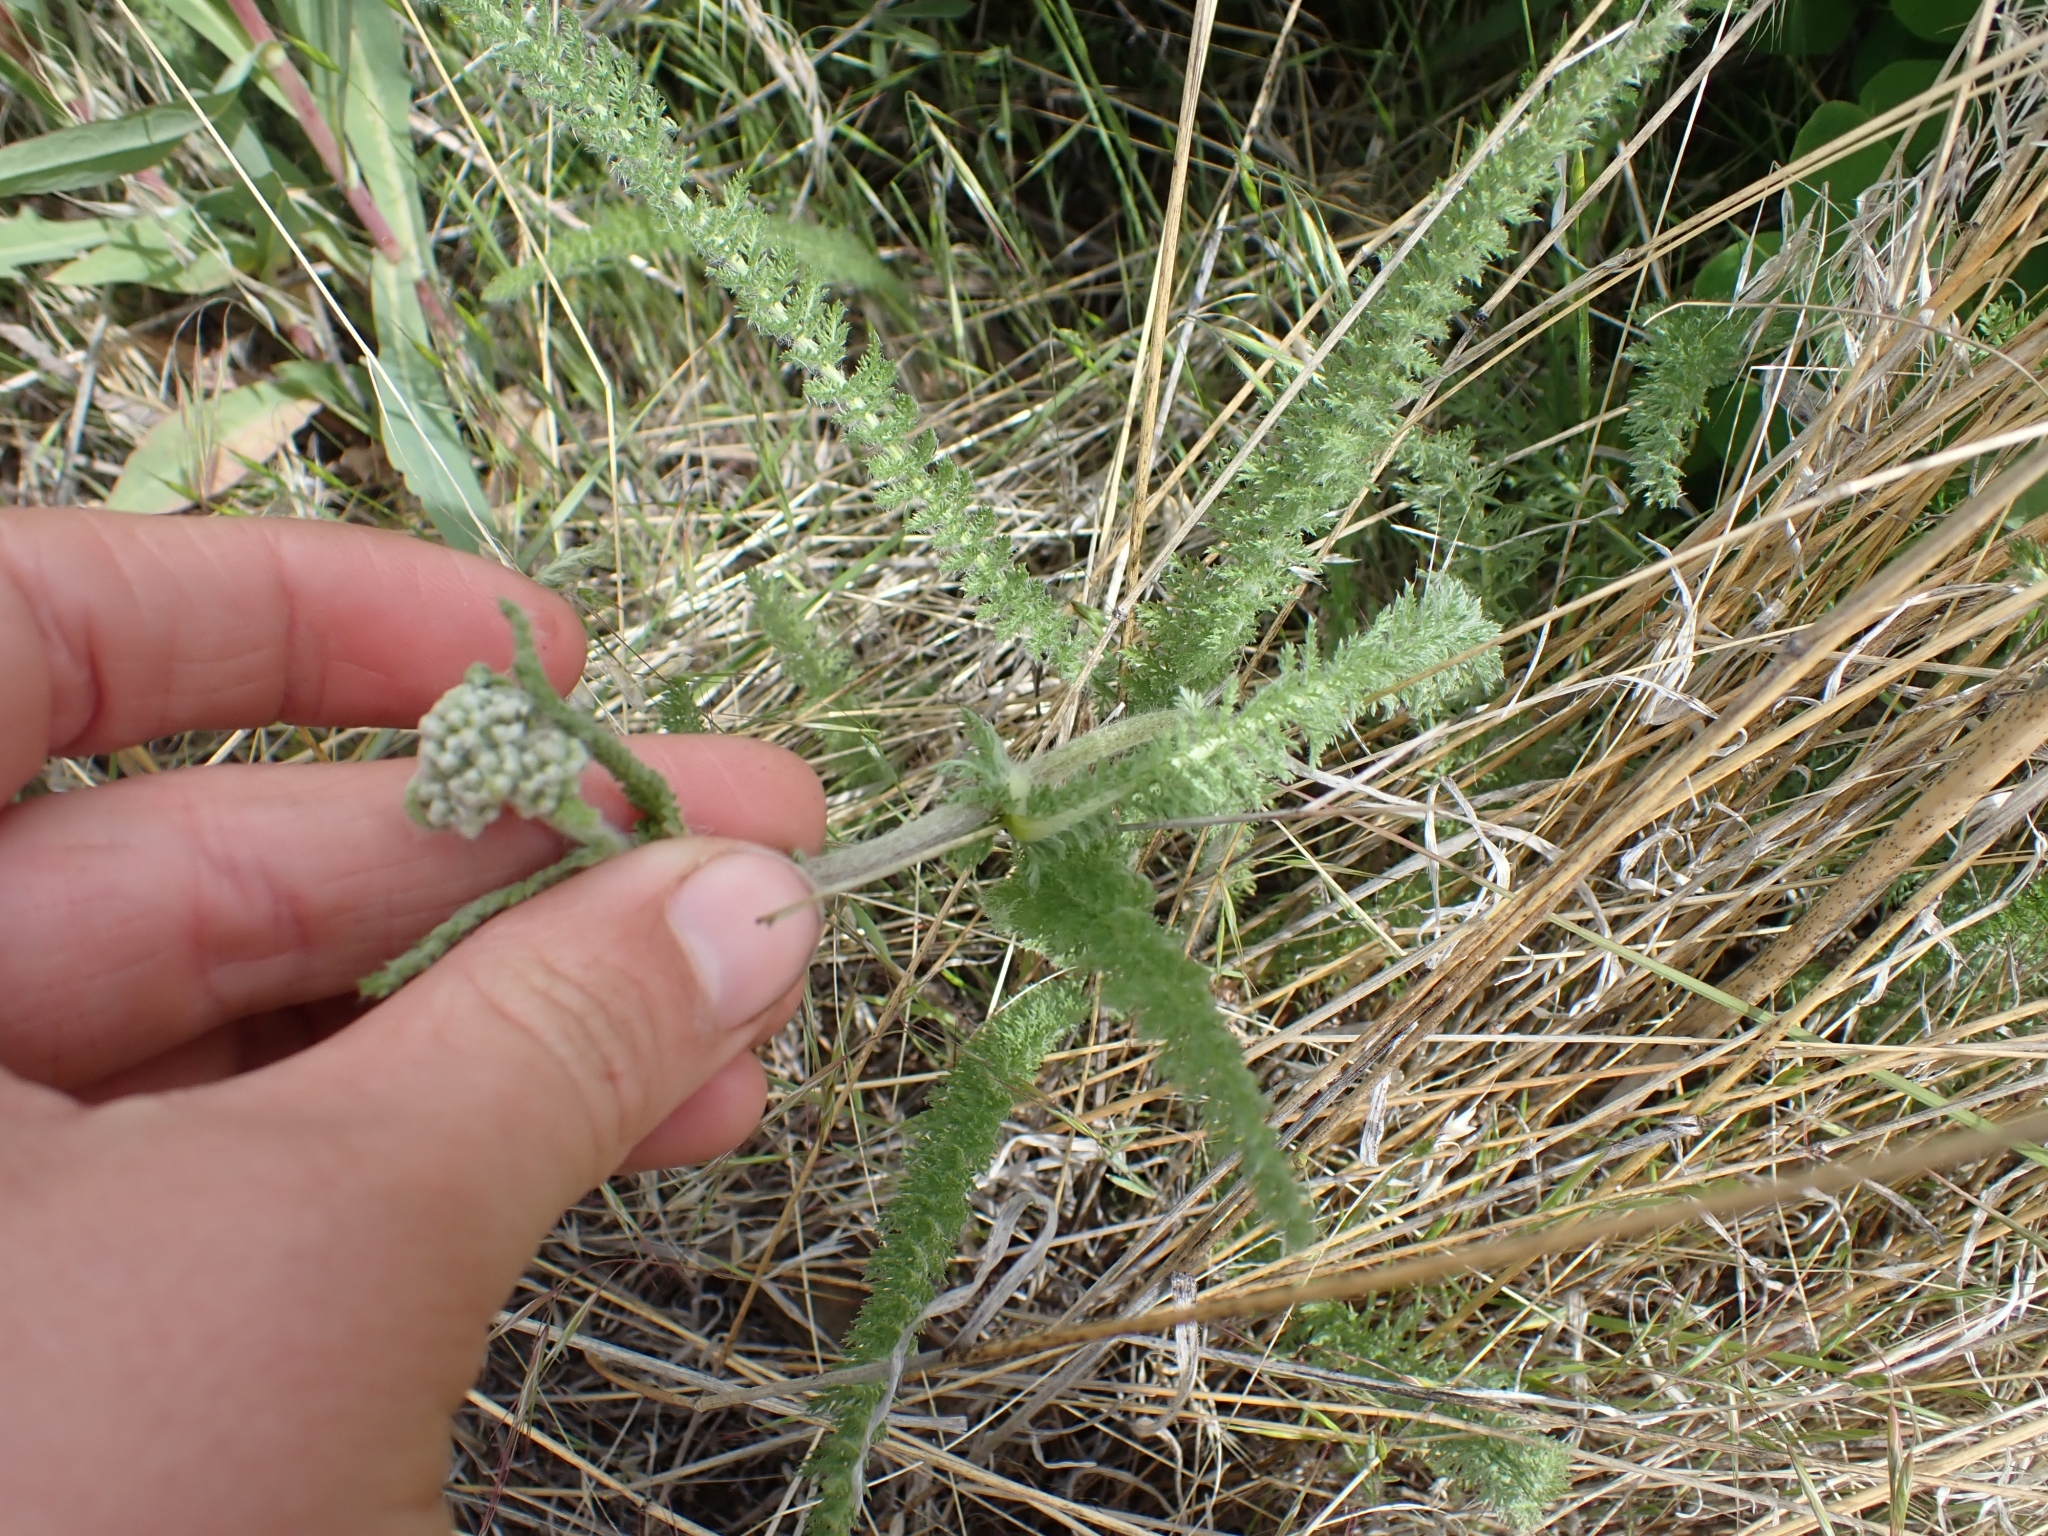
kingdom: Plantae
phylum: Tracheophyta
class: Magnoliopsida
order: Asterales
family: Asteraceae
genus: Achillea
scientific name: Achillea millefolium
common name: Yarrow
